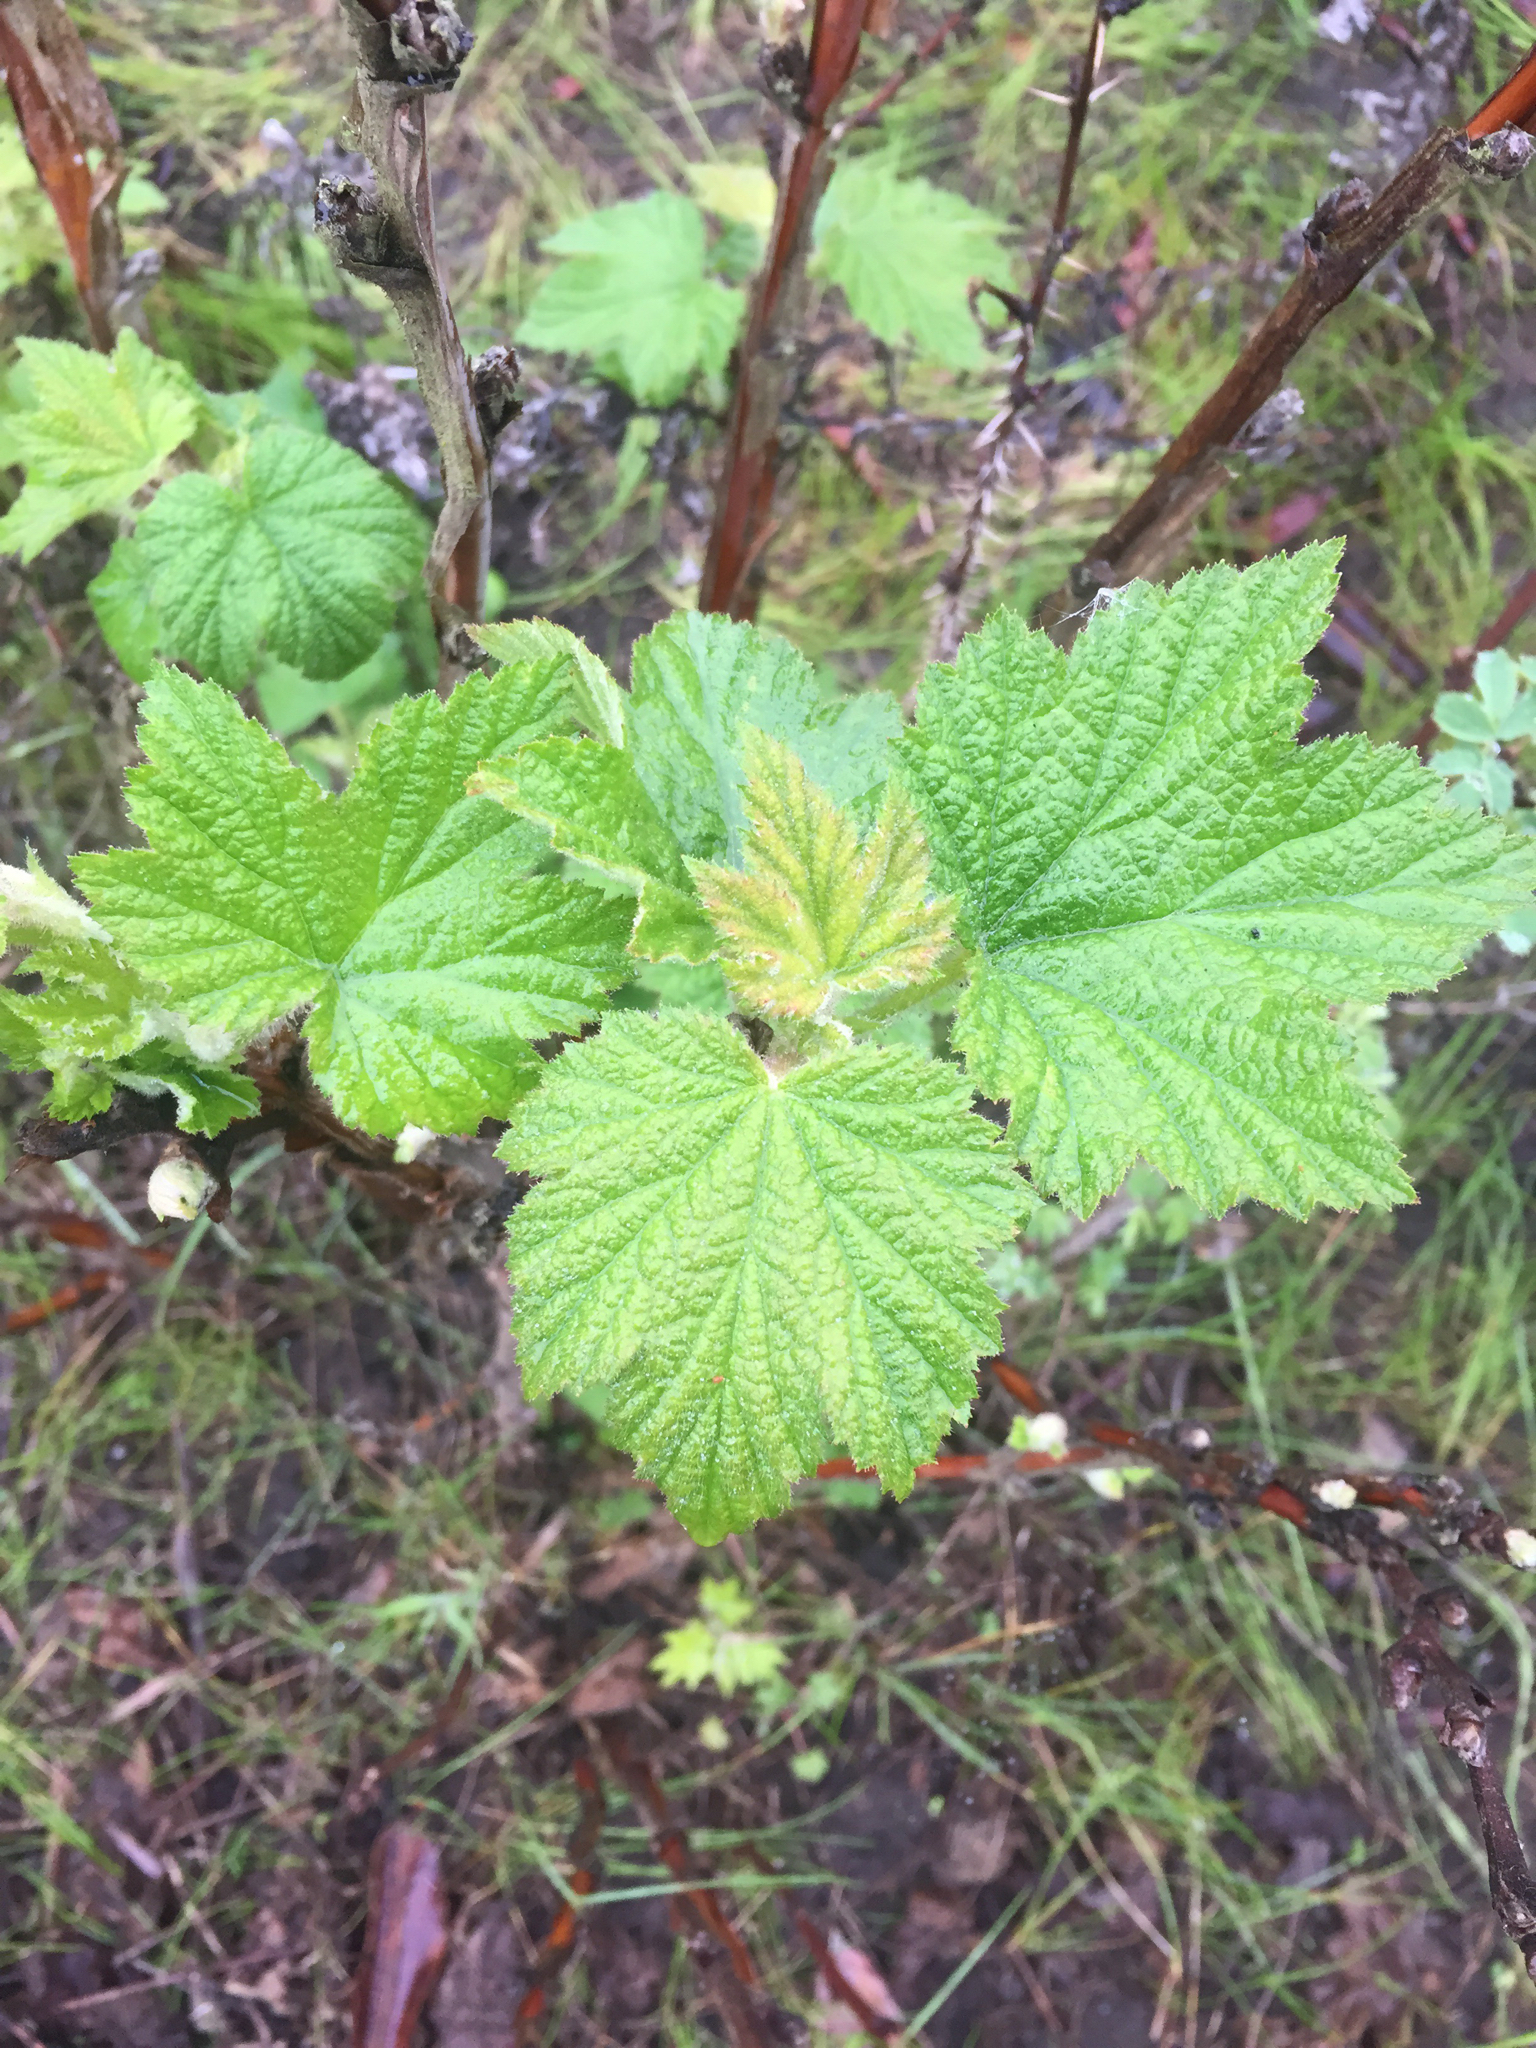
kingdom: Plantae
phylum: Tracheophyta
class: Magnoliopsida
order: Rosales
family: Rosaceae
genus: Rubus
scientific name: Rubus parviflorus
